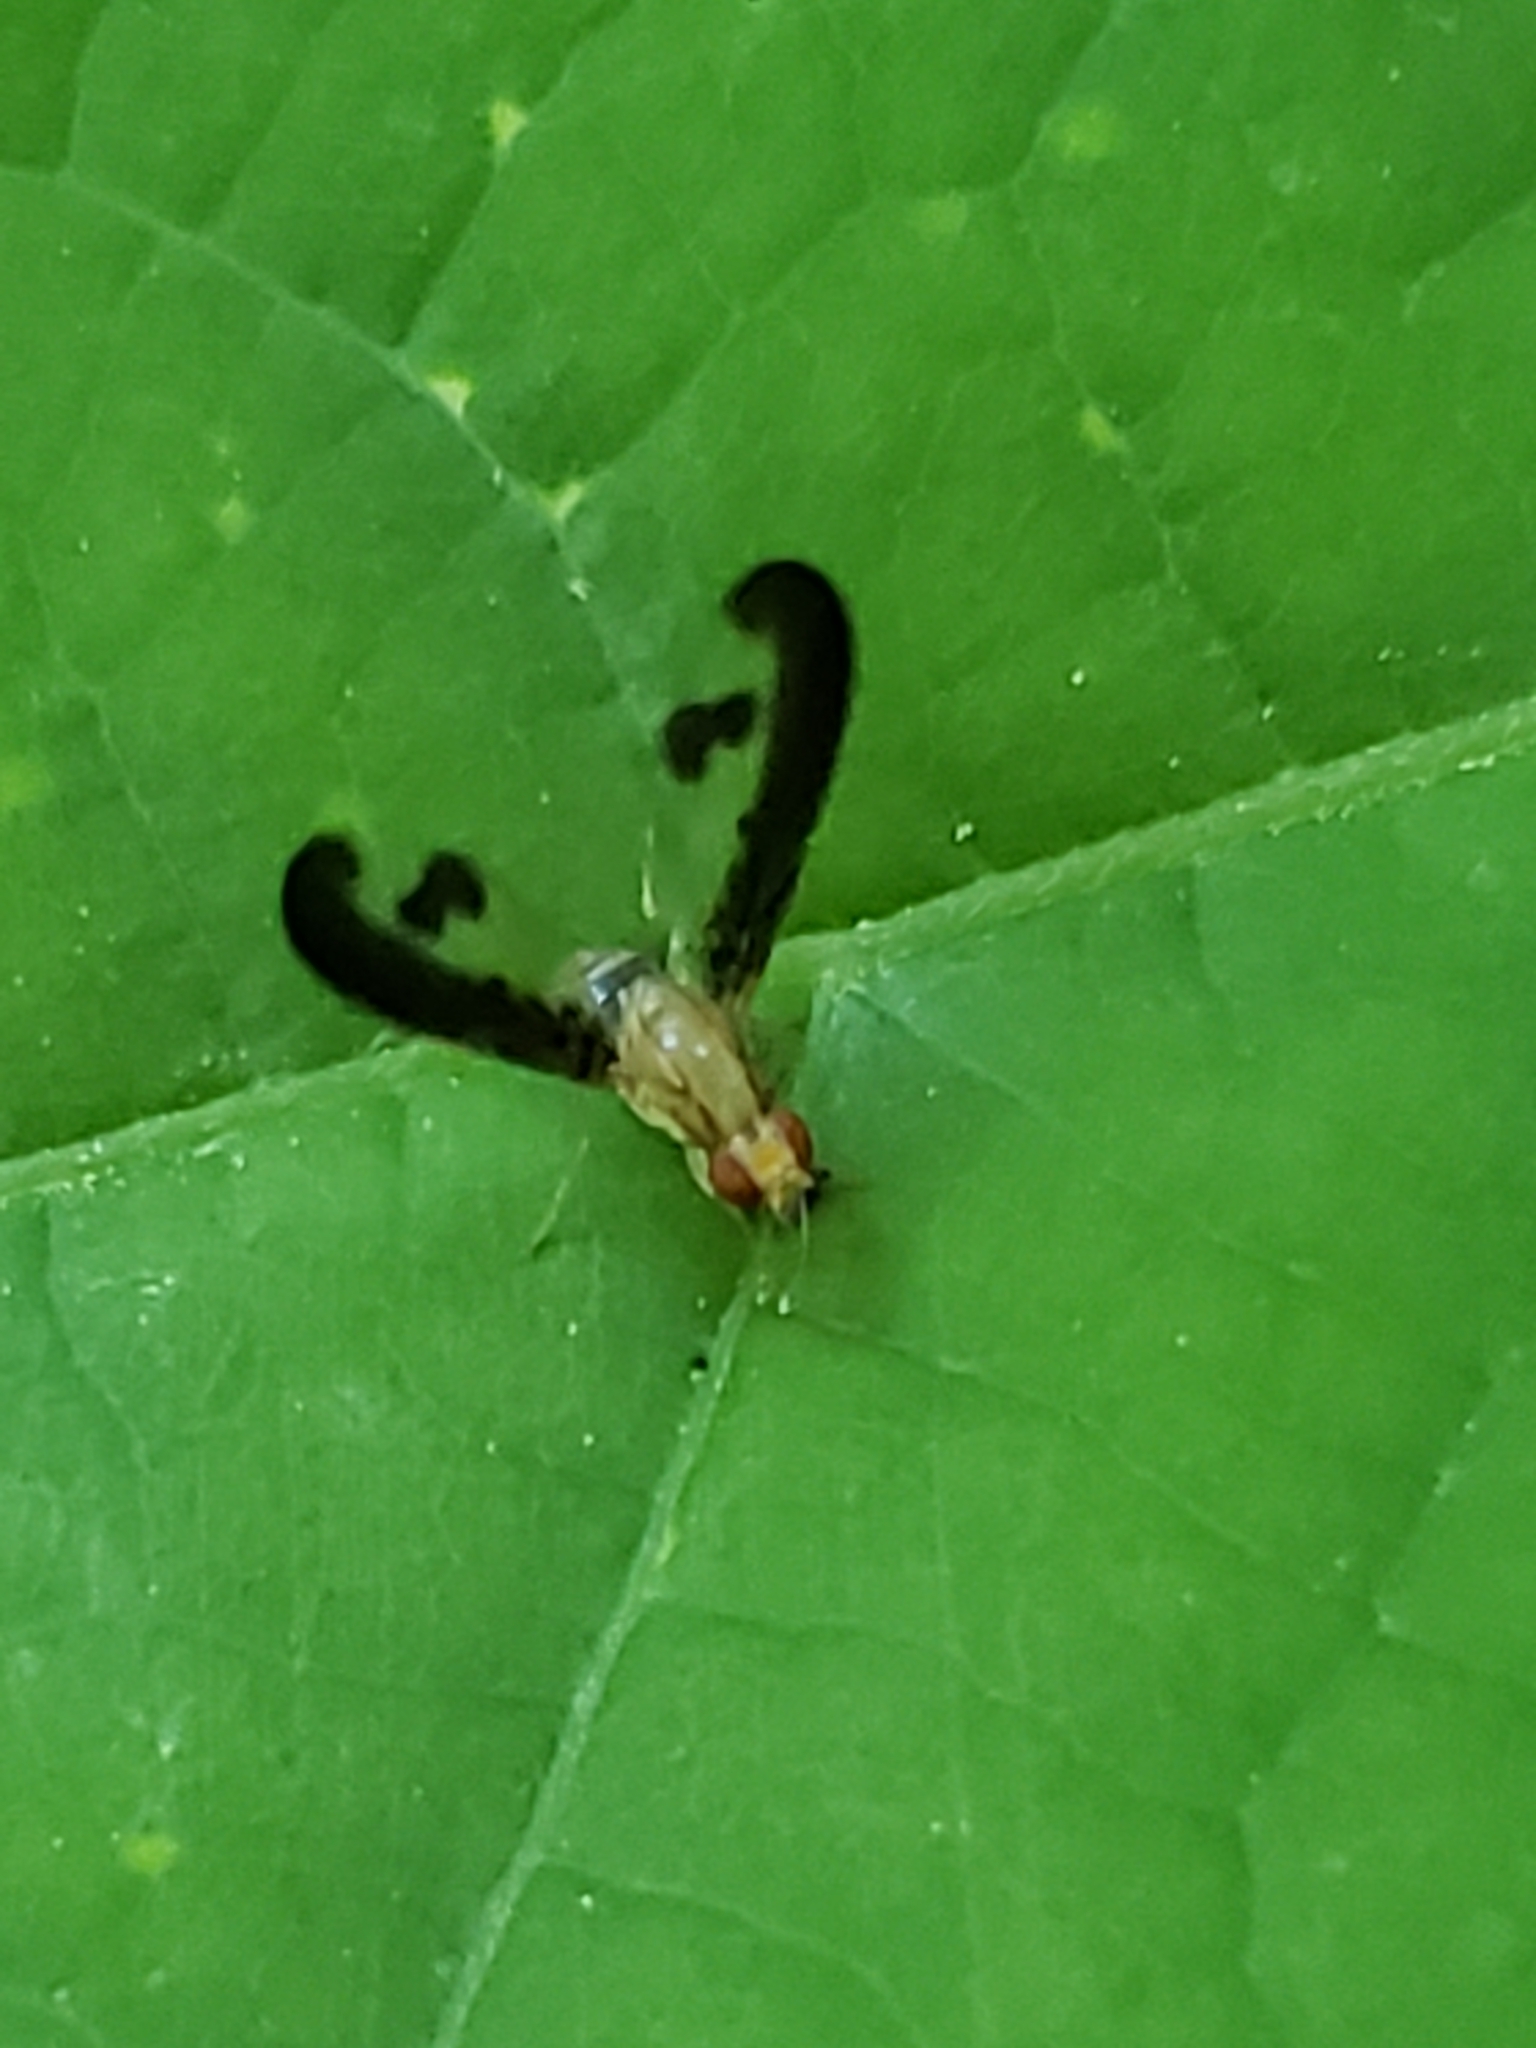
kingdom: Animalia
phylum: Arthropoda
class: Insecta
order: Diptera
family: Pallopteridae
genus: Toxonevra
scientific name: Toxonevra superba
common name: Antlered flutter fly
